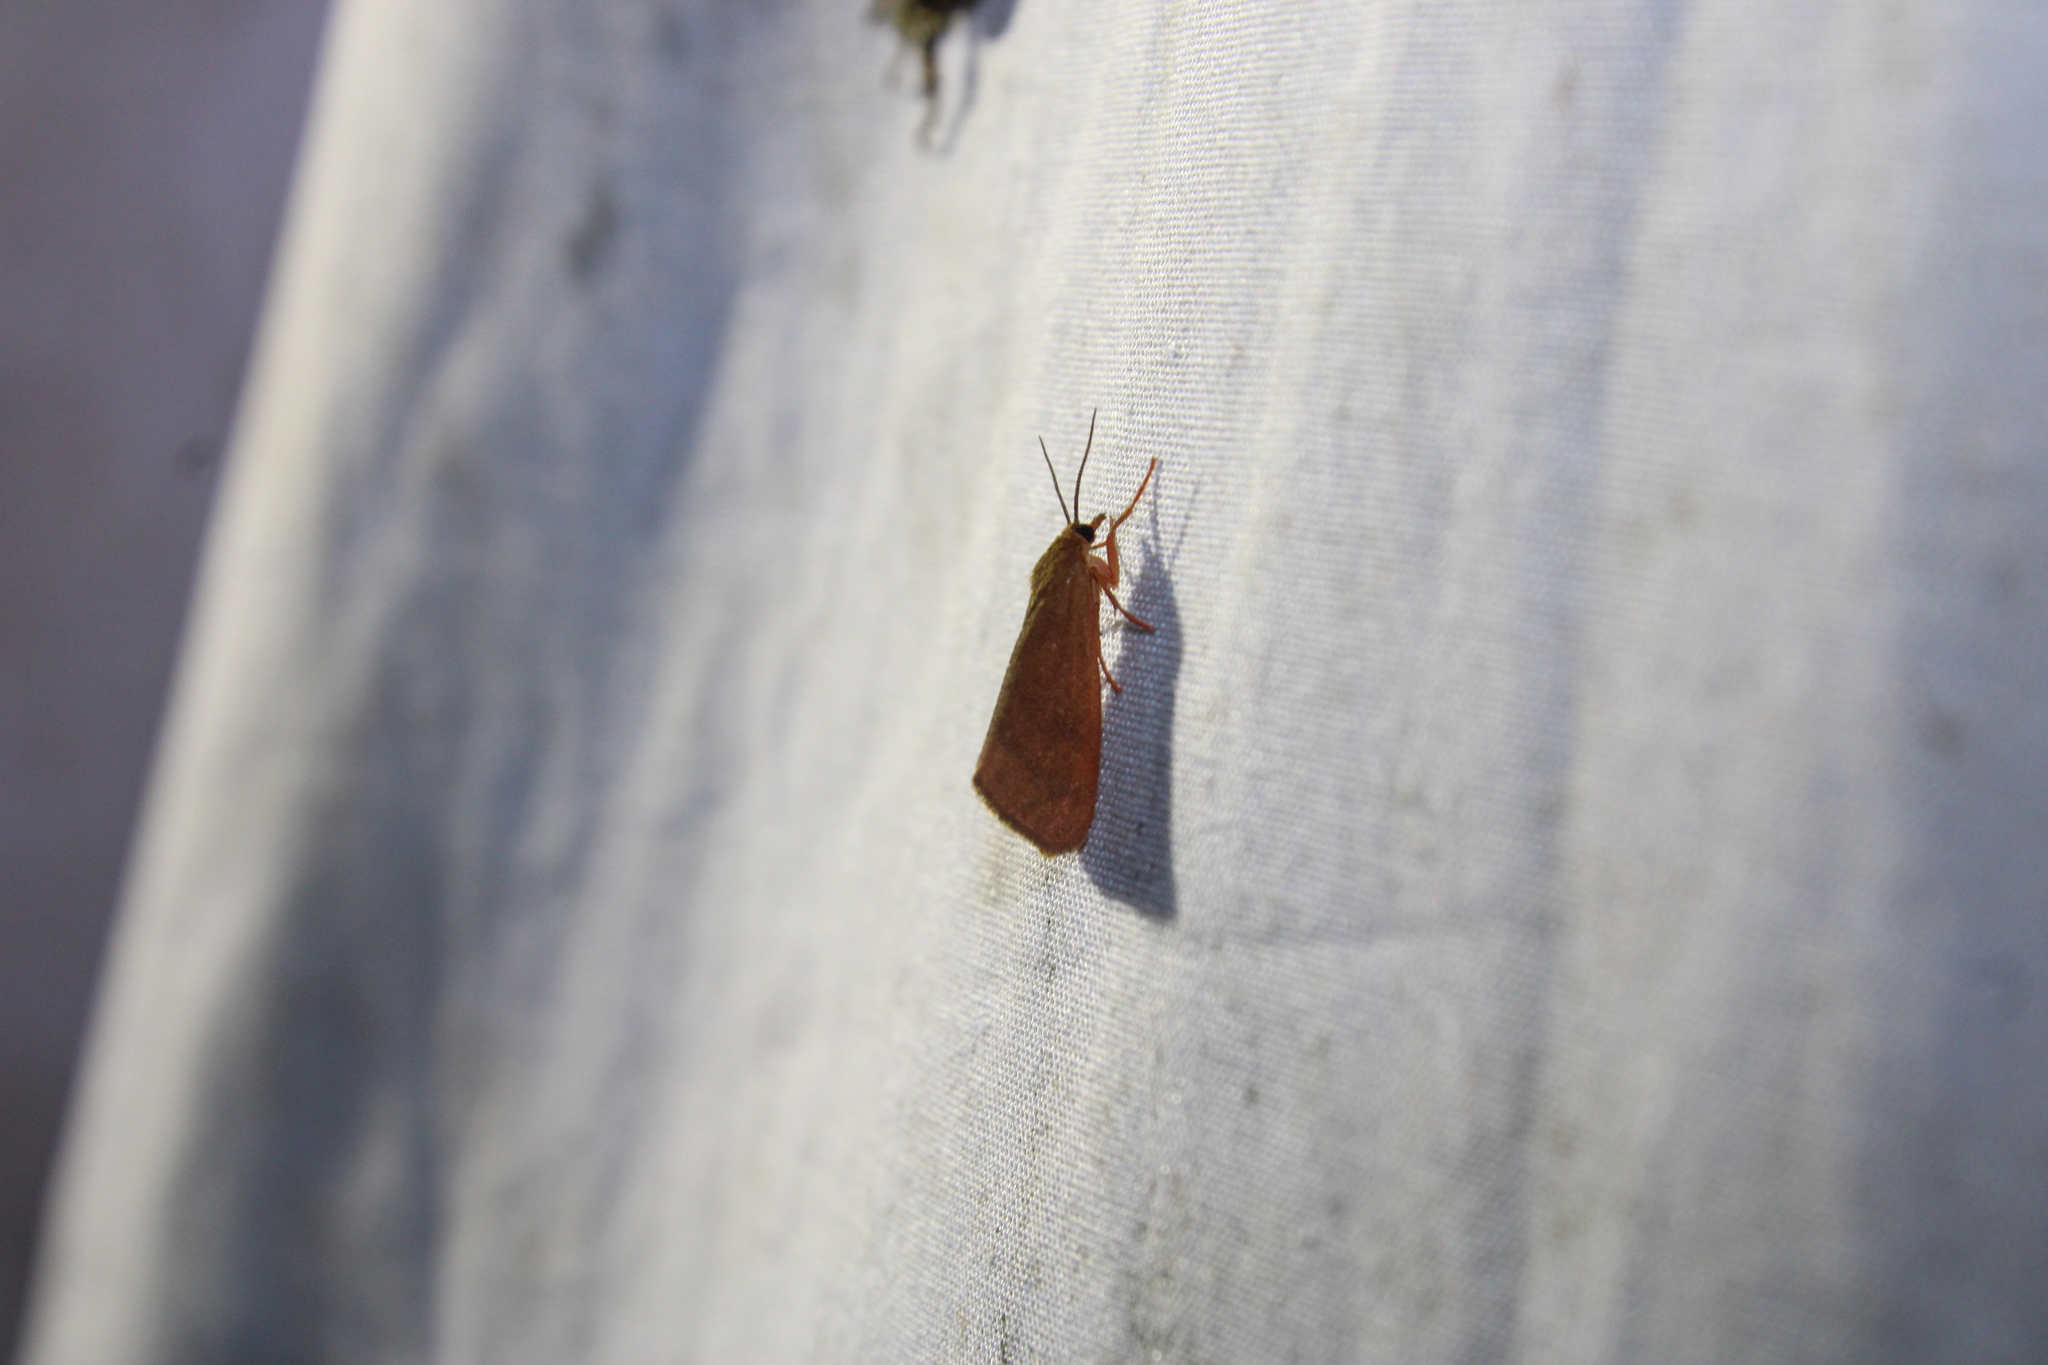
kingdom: Animalia
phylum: Arthropoda
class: Insecta
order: Lepidoptera
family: Erebidae
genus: Virbia
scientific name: Virbia aurantiaca
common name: Orange virbia moth
